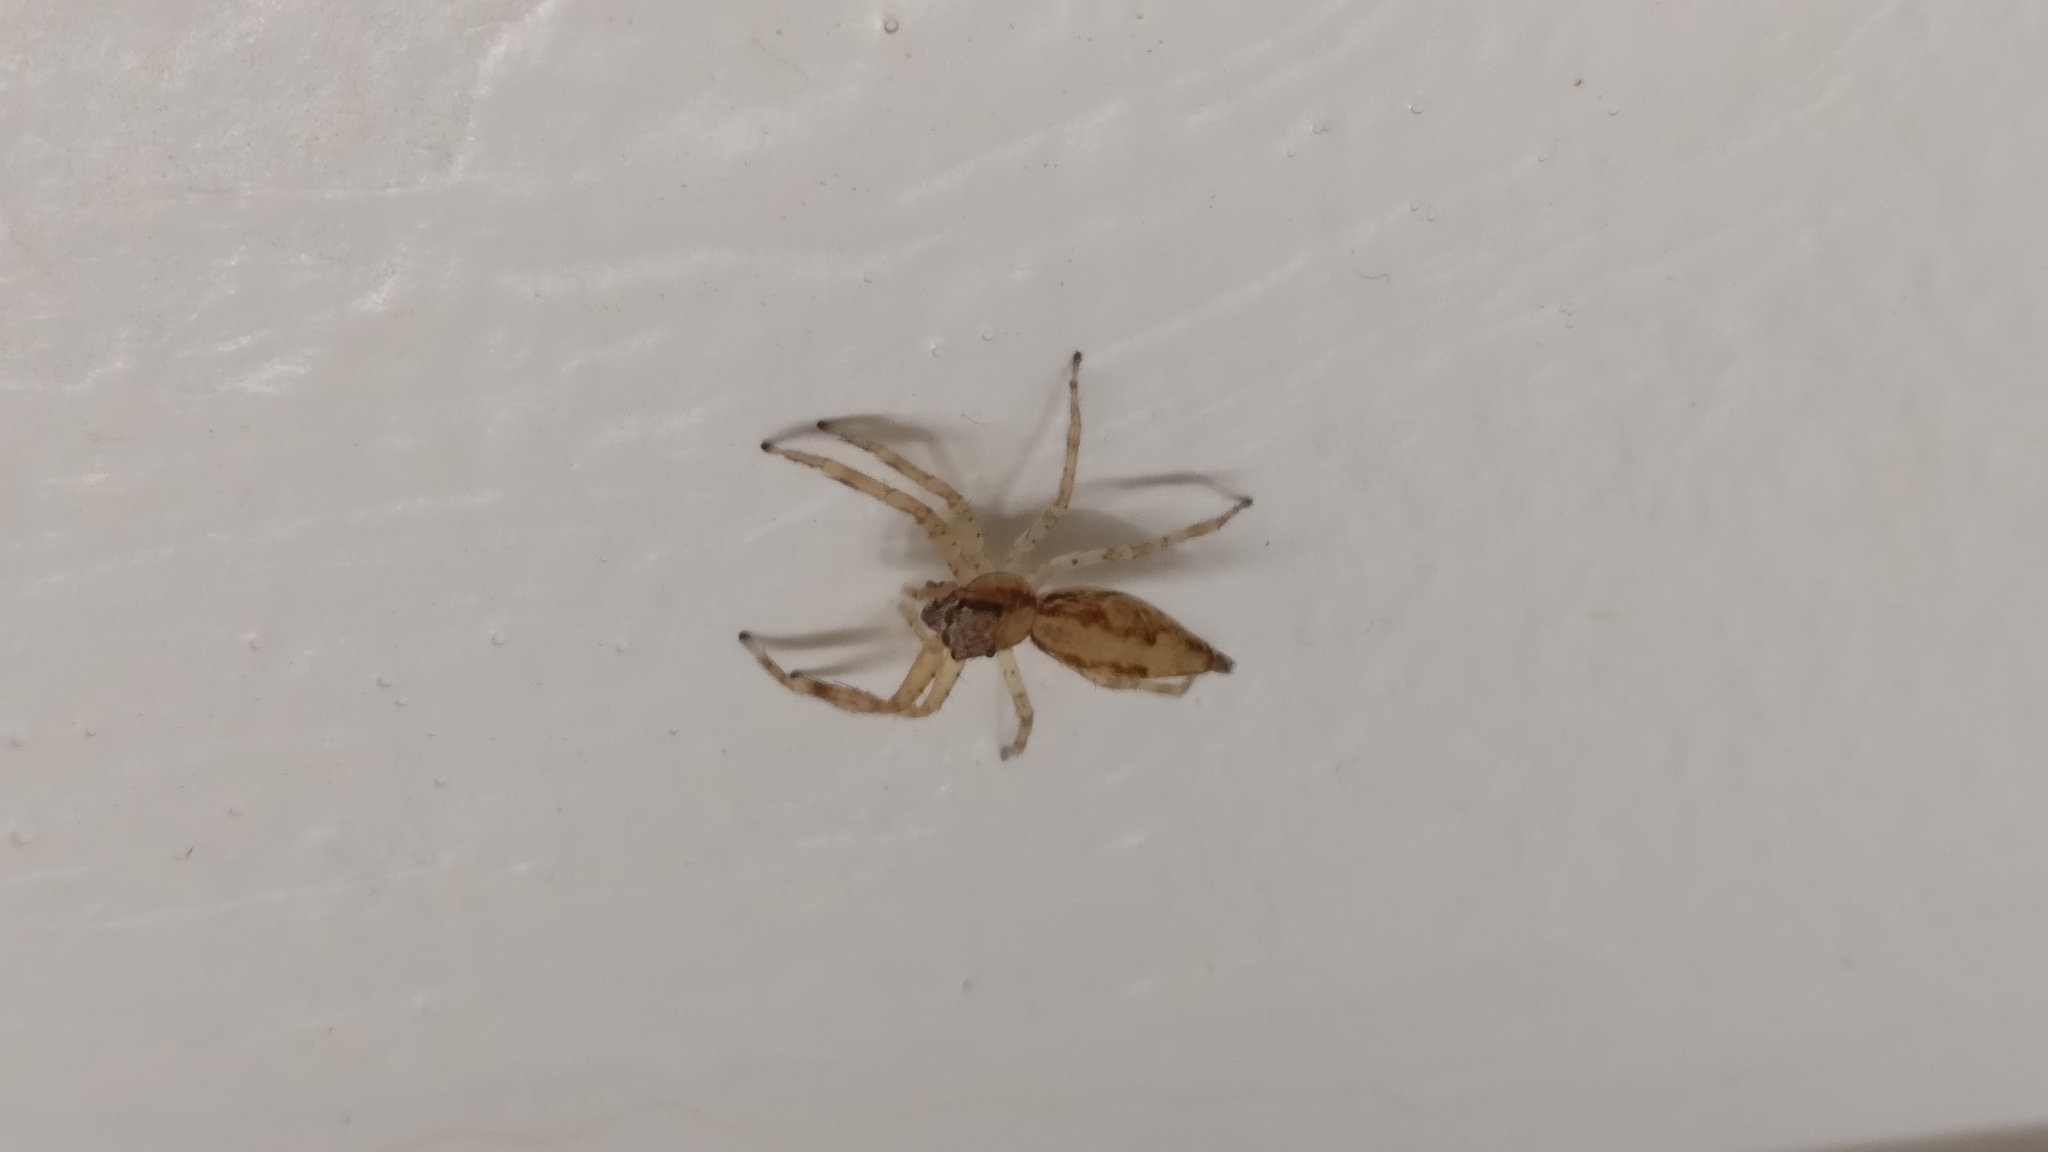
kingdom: Animalia
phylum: Arthropoda
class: Arachnida
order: Araneae
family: Salticidae
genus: Helpis
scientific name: Helpis minitabunda
